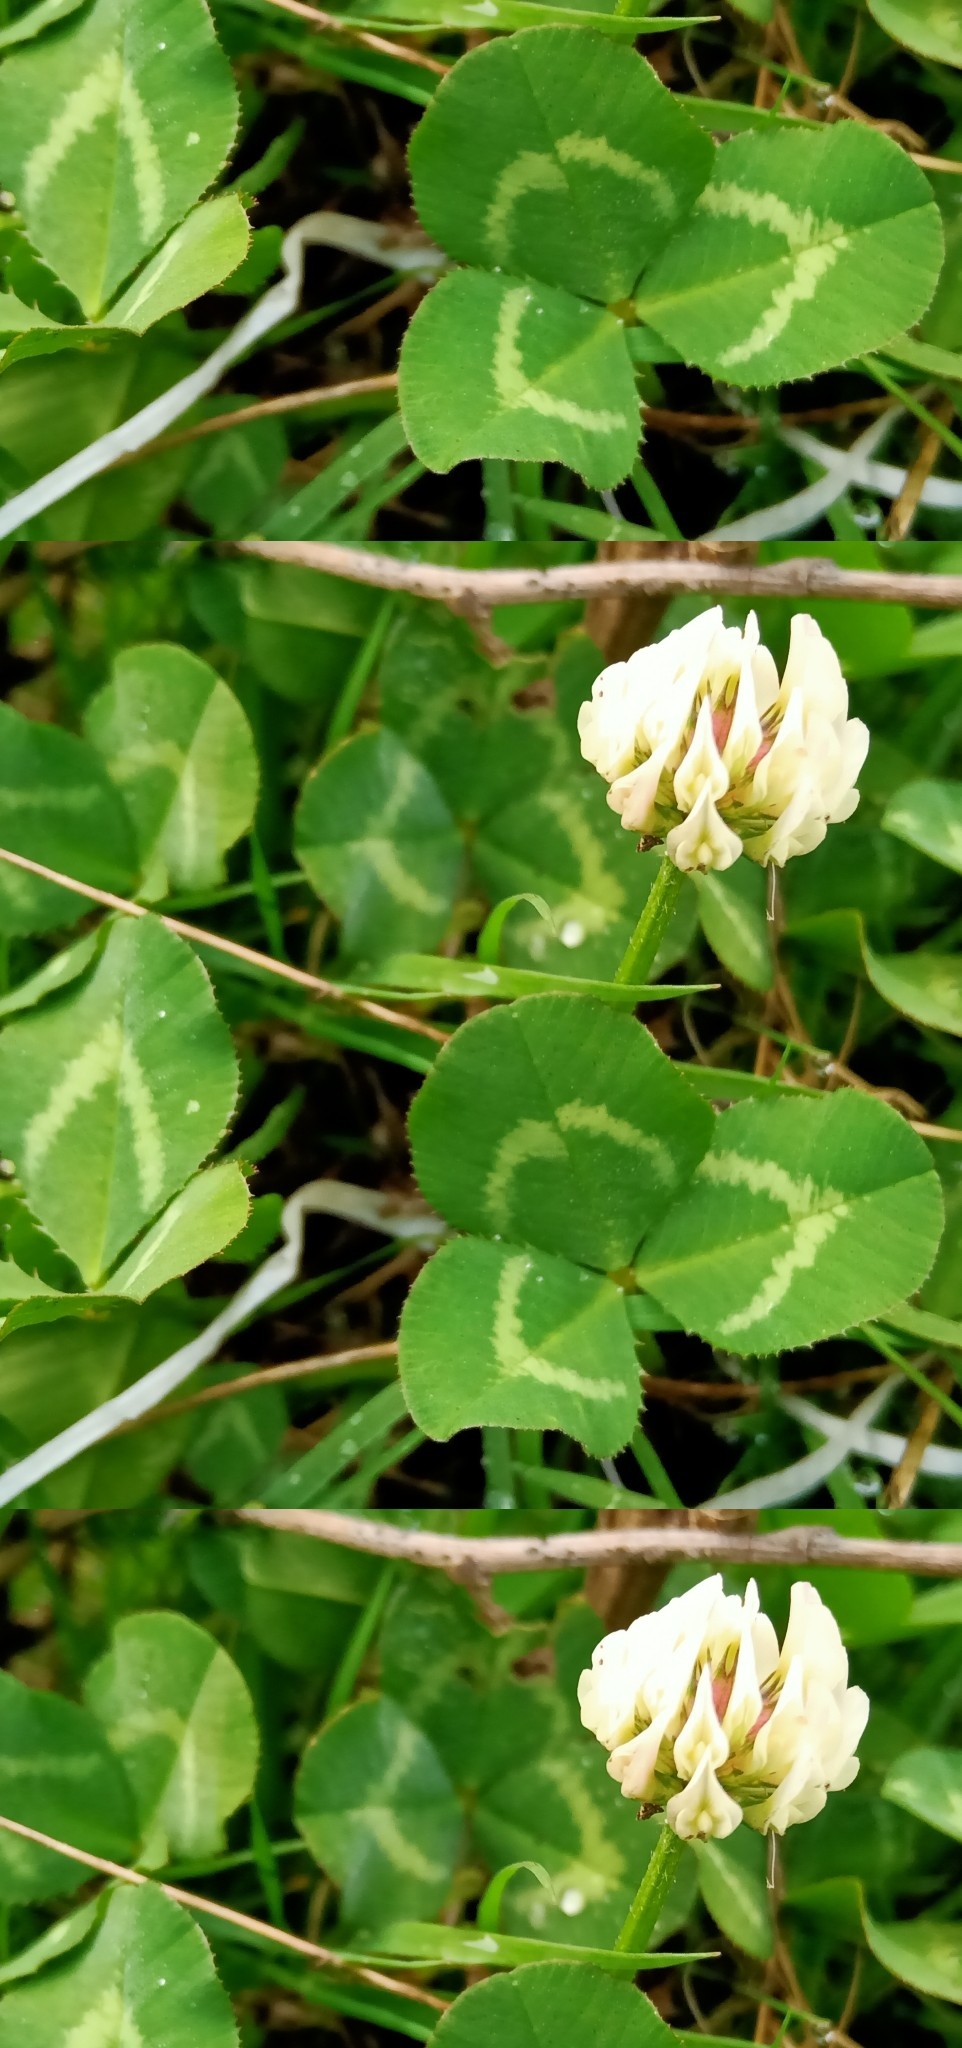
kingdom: Plantae
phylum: Tracheophyta
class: Magnoliopsida
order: Fabales
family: Fabaceae
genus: Trifolium
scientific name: Trifolium repens
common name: White clover
